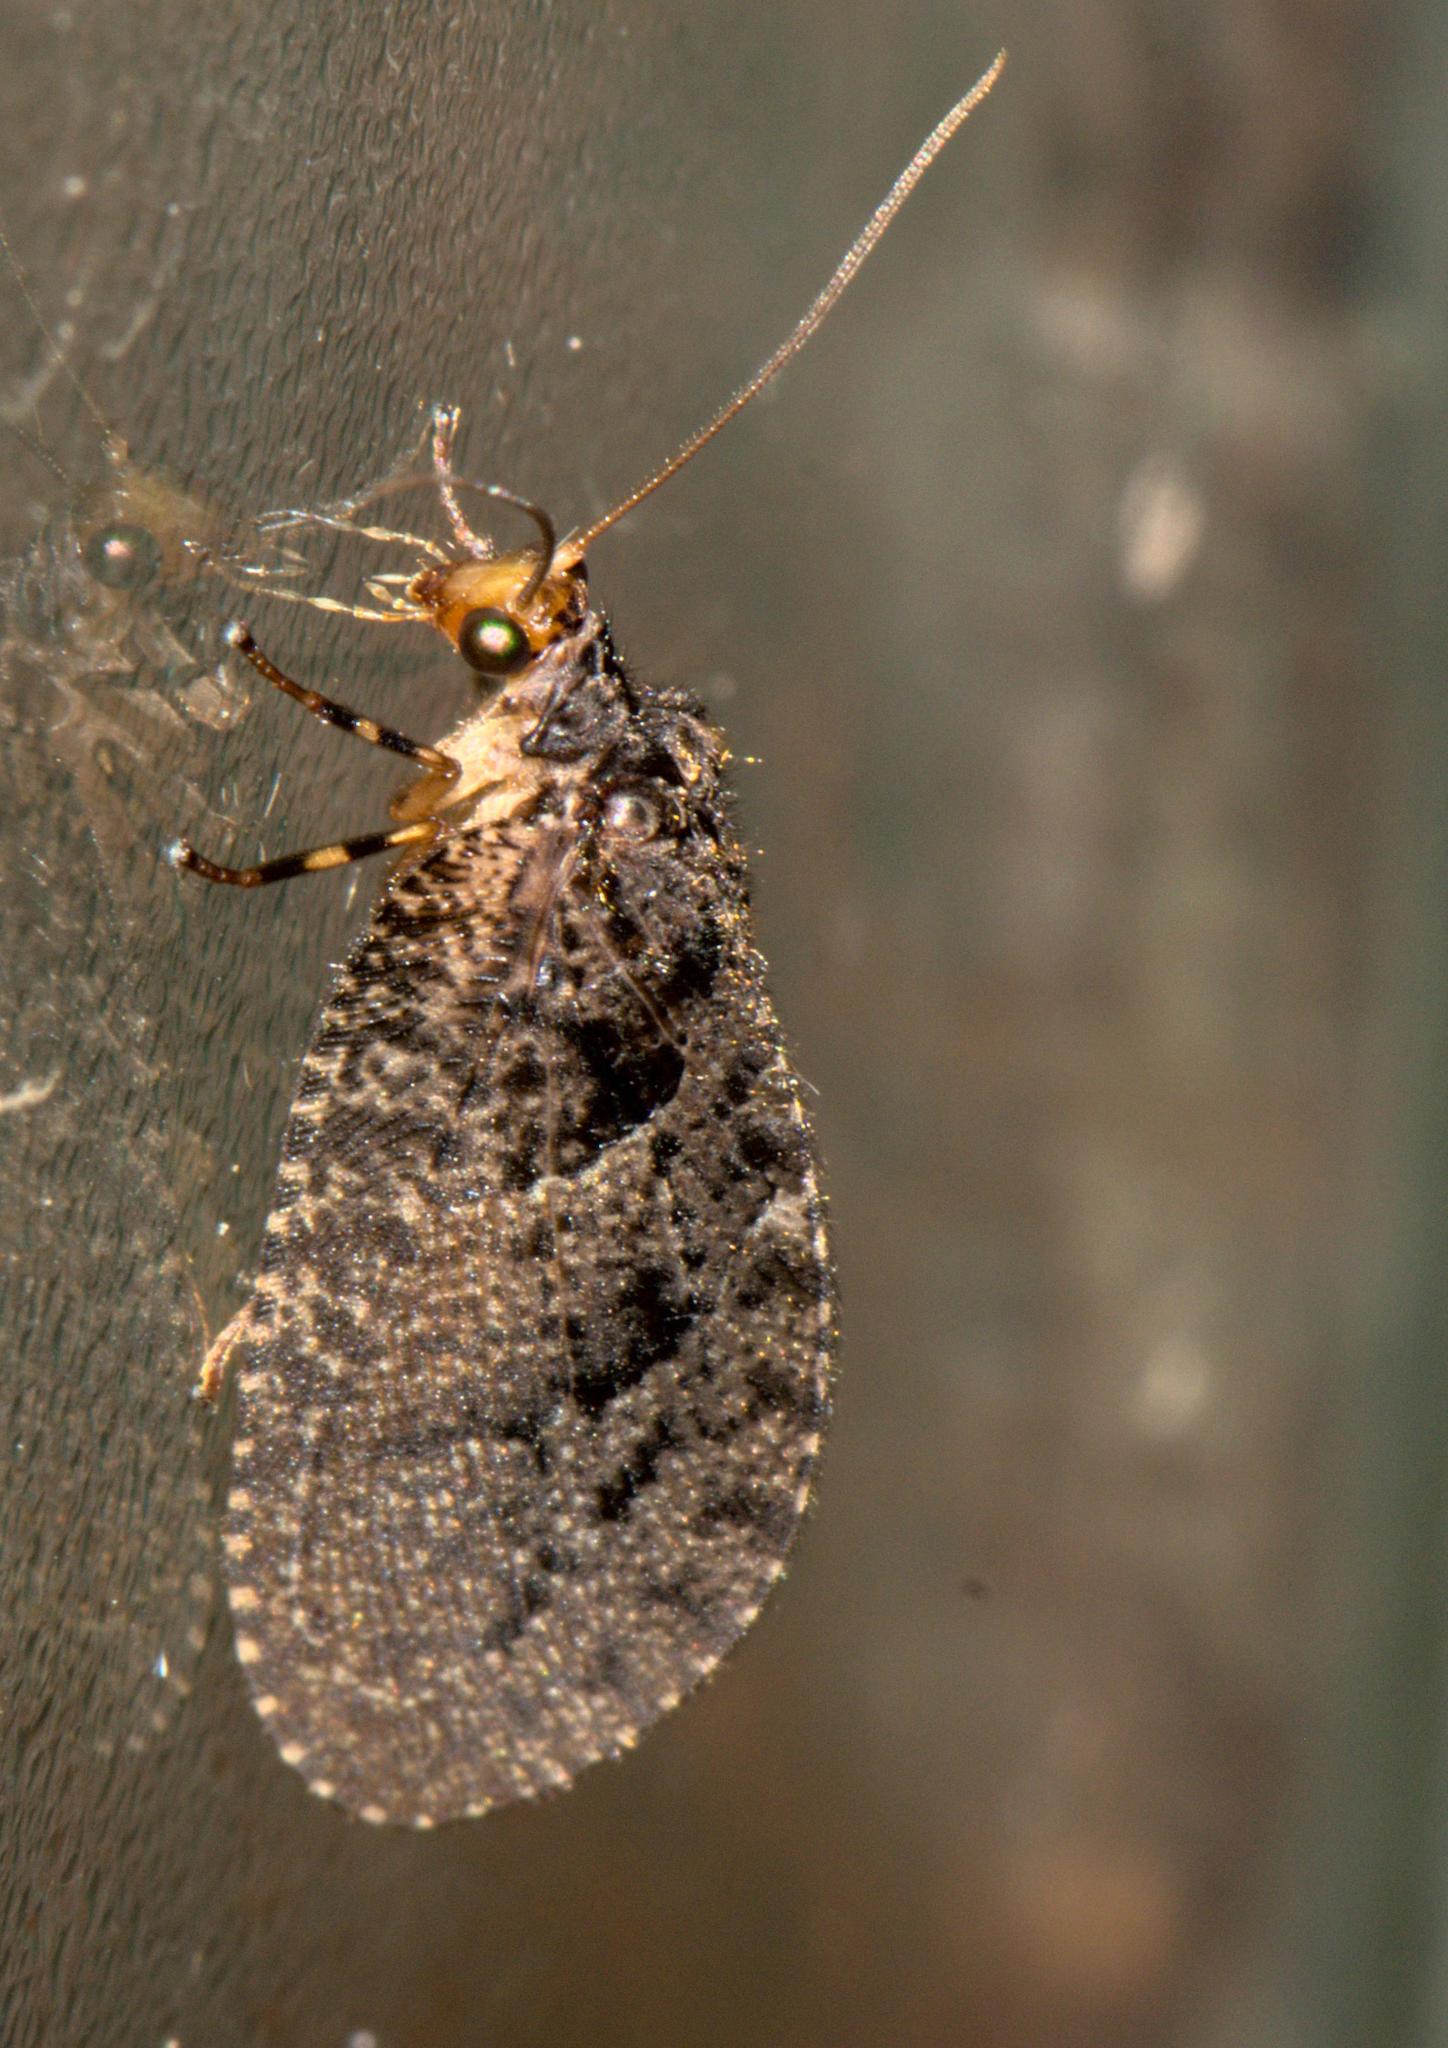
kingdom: Animalia
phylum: Arthropoda
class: Insecta
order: Neuroptera
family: Hemerobiidae
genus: Neuronema
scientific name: Neuronema decisum
